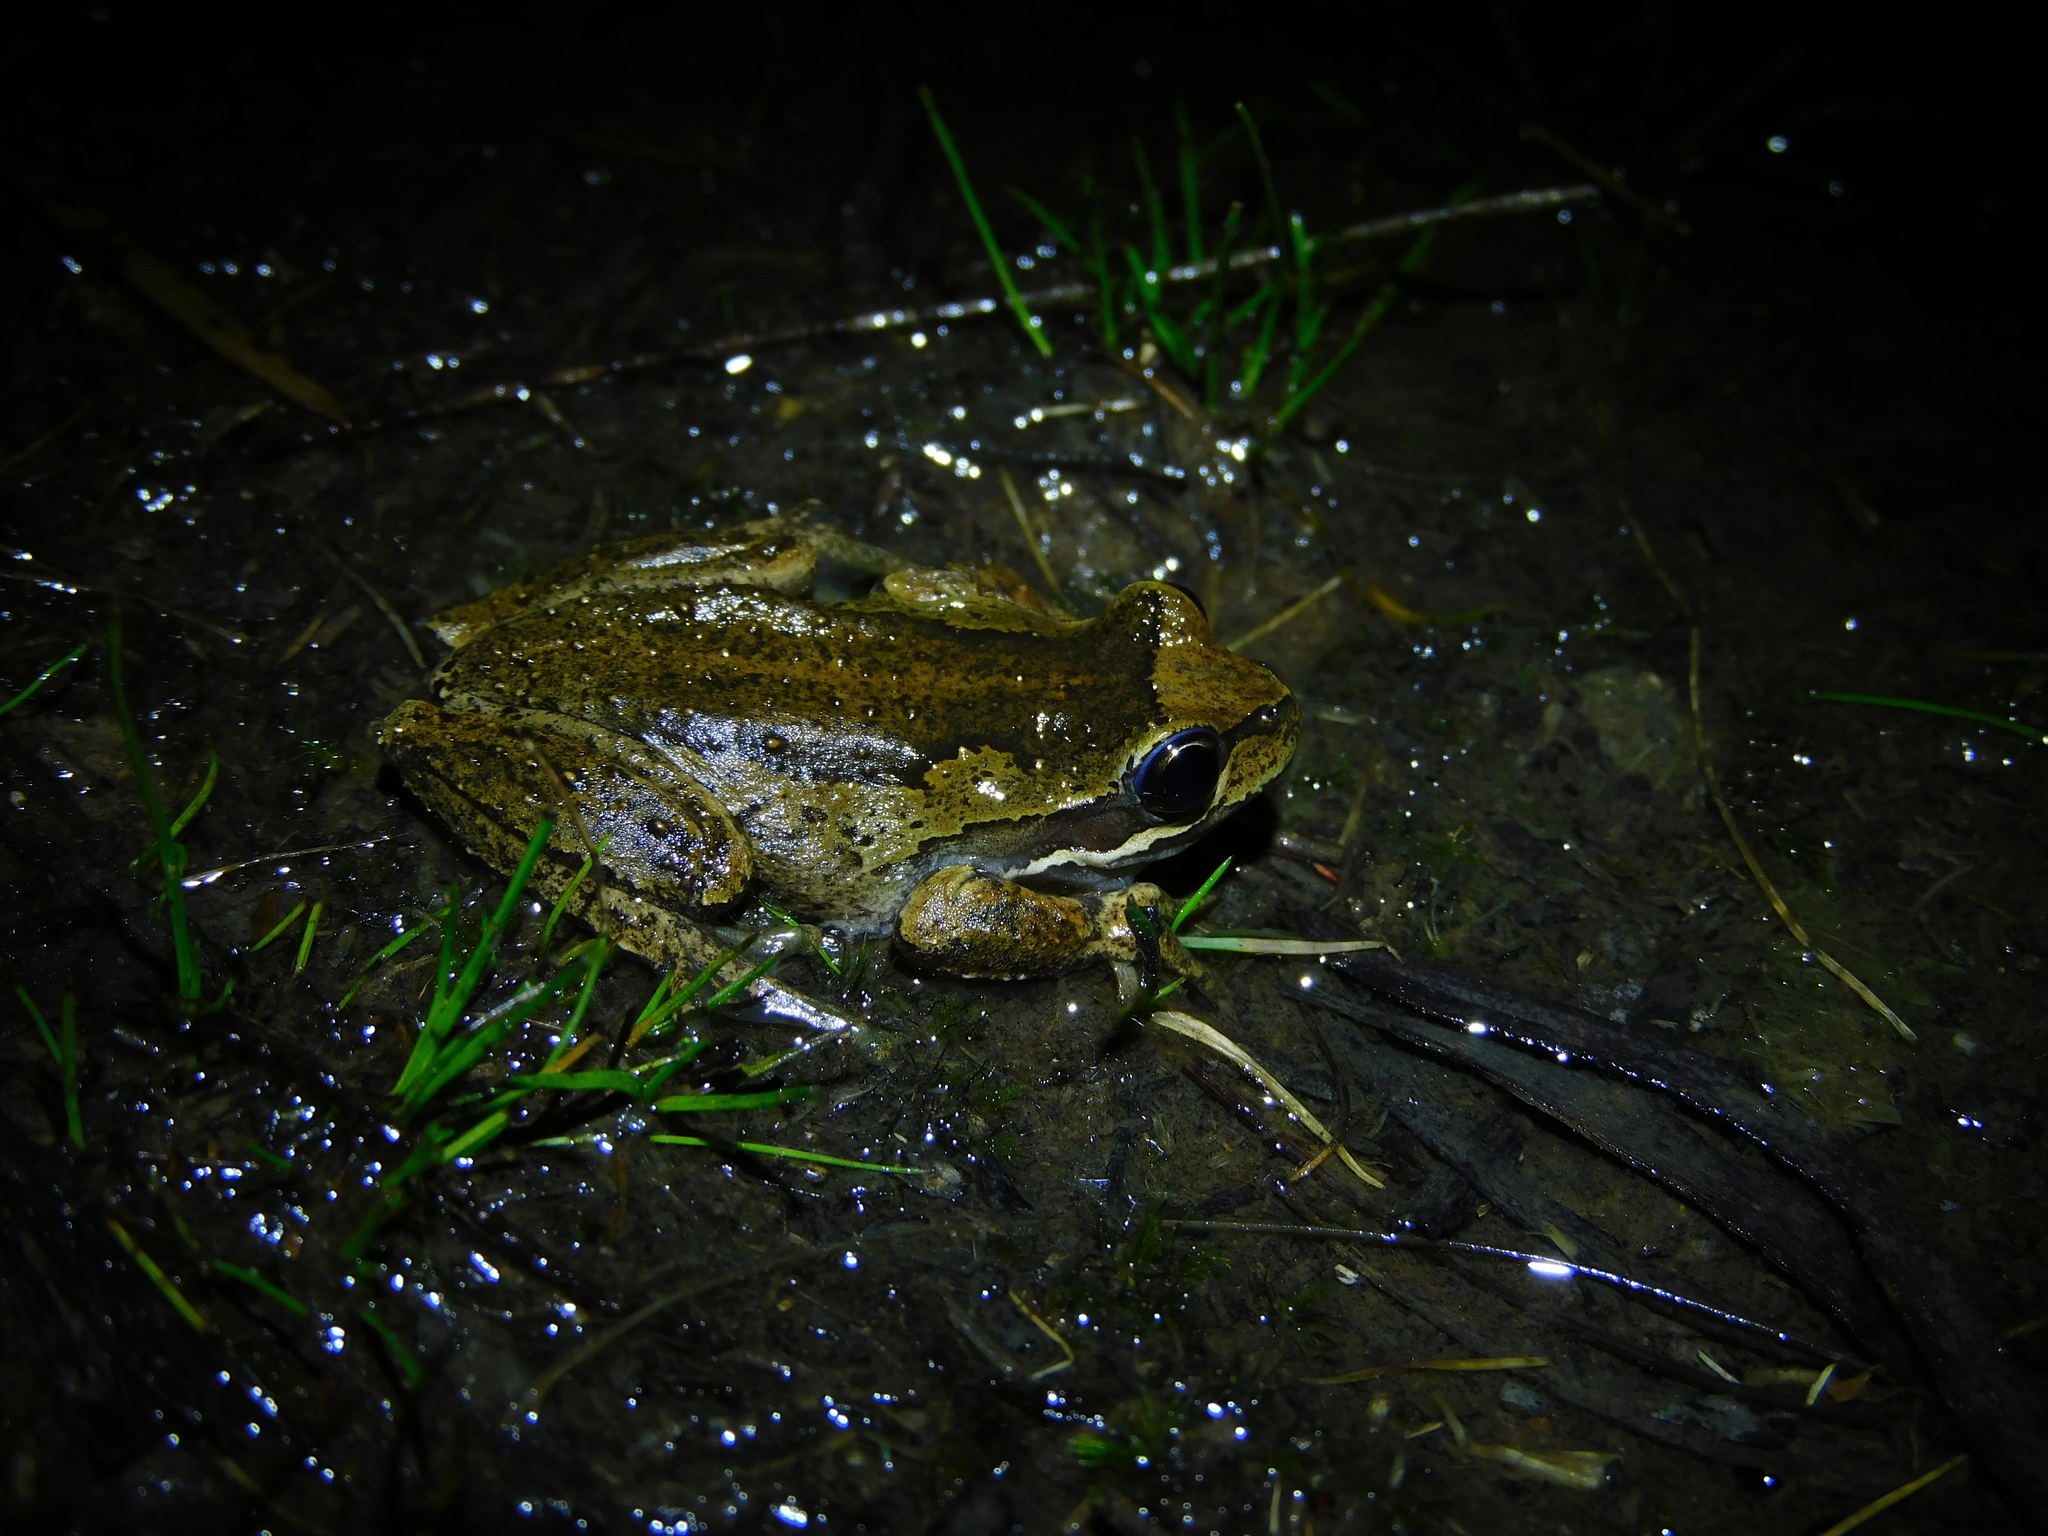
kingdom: Animalia
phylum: Chordata
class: Amphibia
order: Anura
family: Pelodryadidae
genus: Litoria
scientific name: Litoria ewingii
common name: Southern brown tree frog
